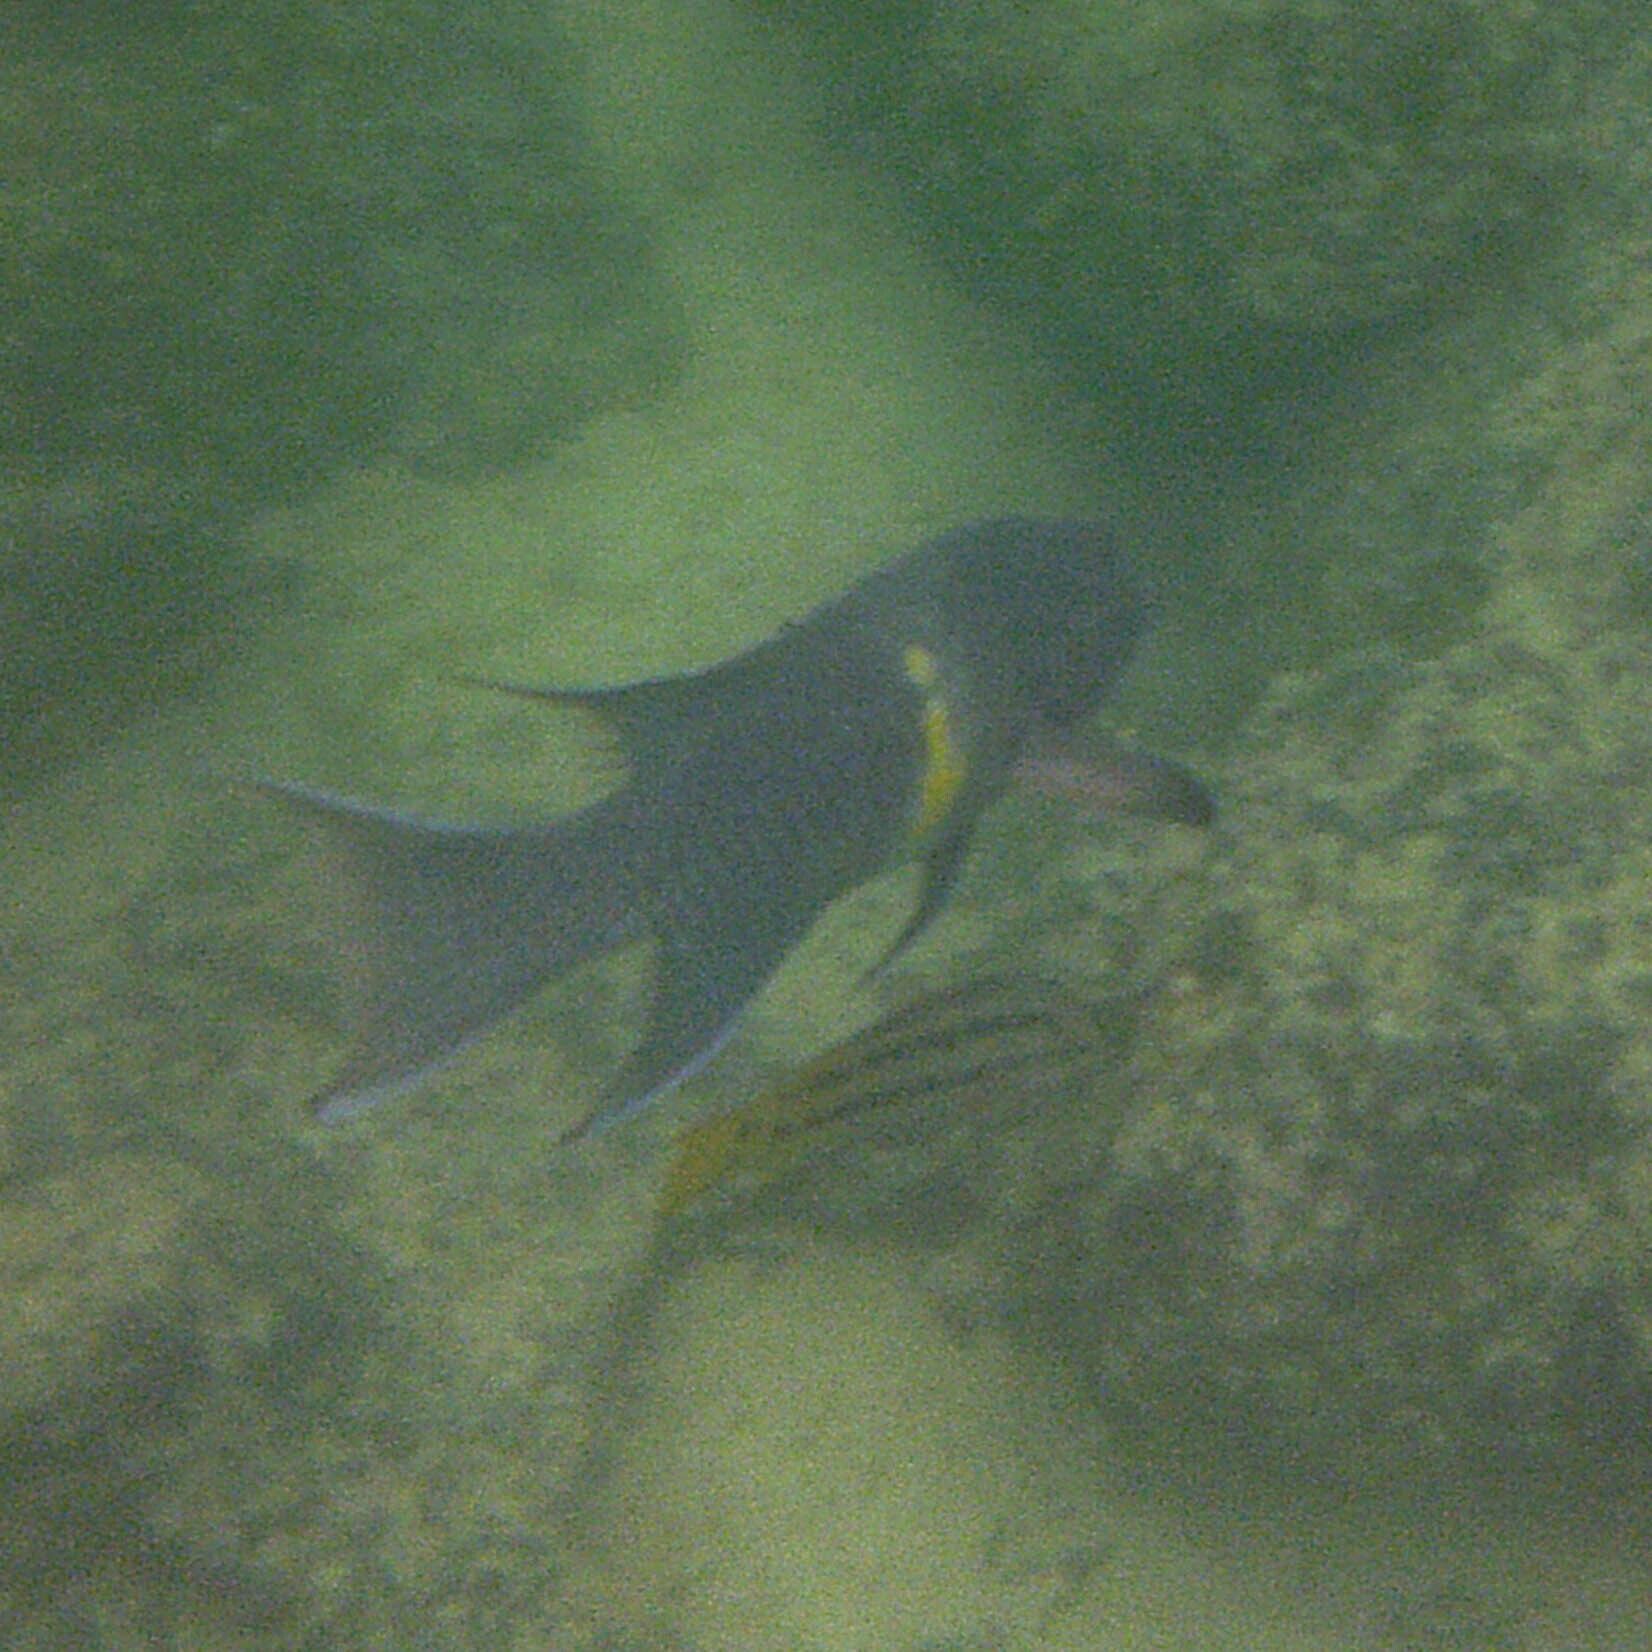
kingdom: Animalia
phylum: Chordata
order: Perciformes
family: Labridae
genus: Bodianus
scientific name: Bodianus diplotaenia
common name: Mexican hogfish
